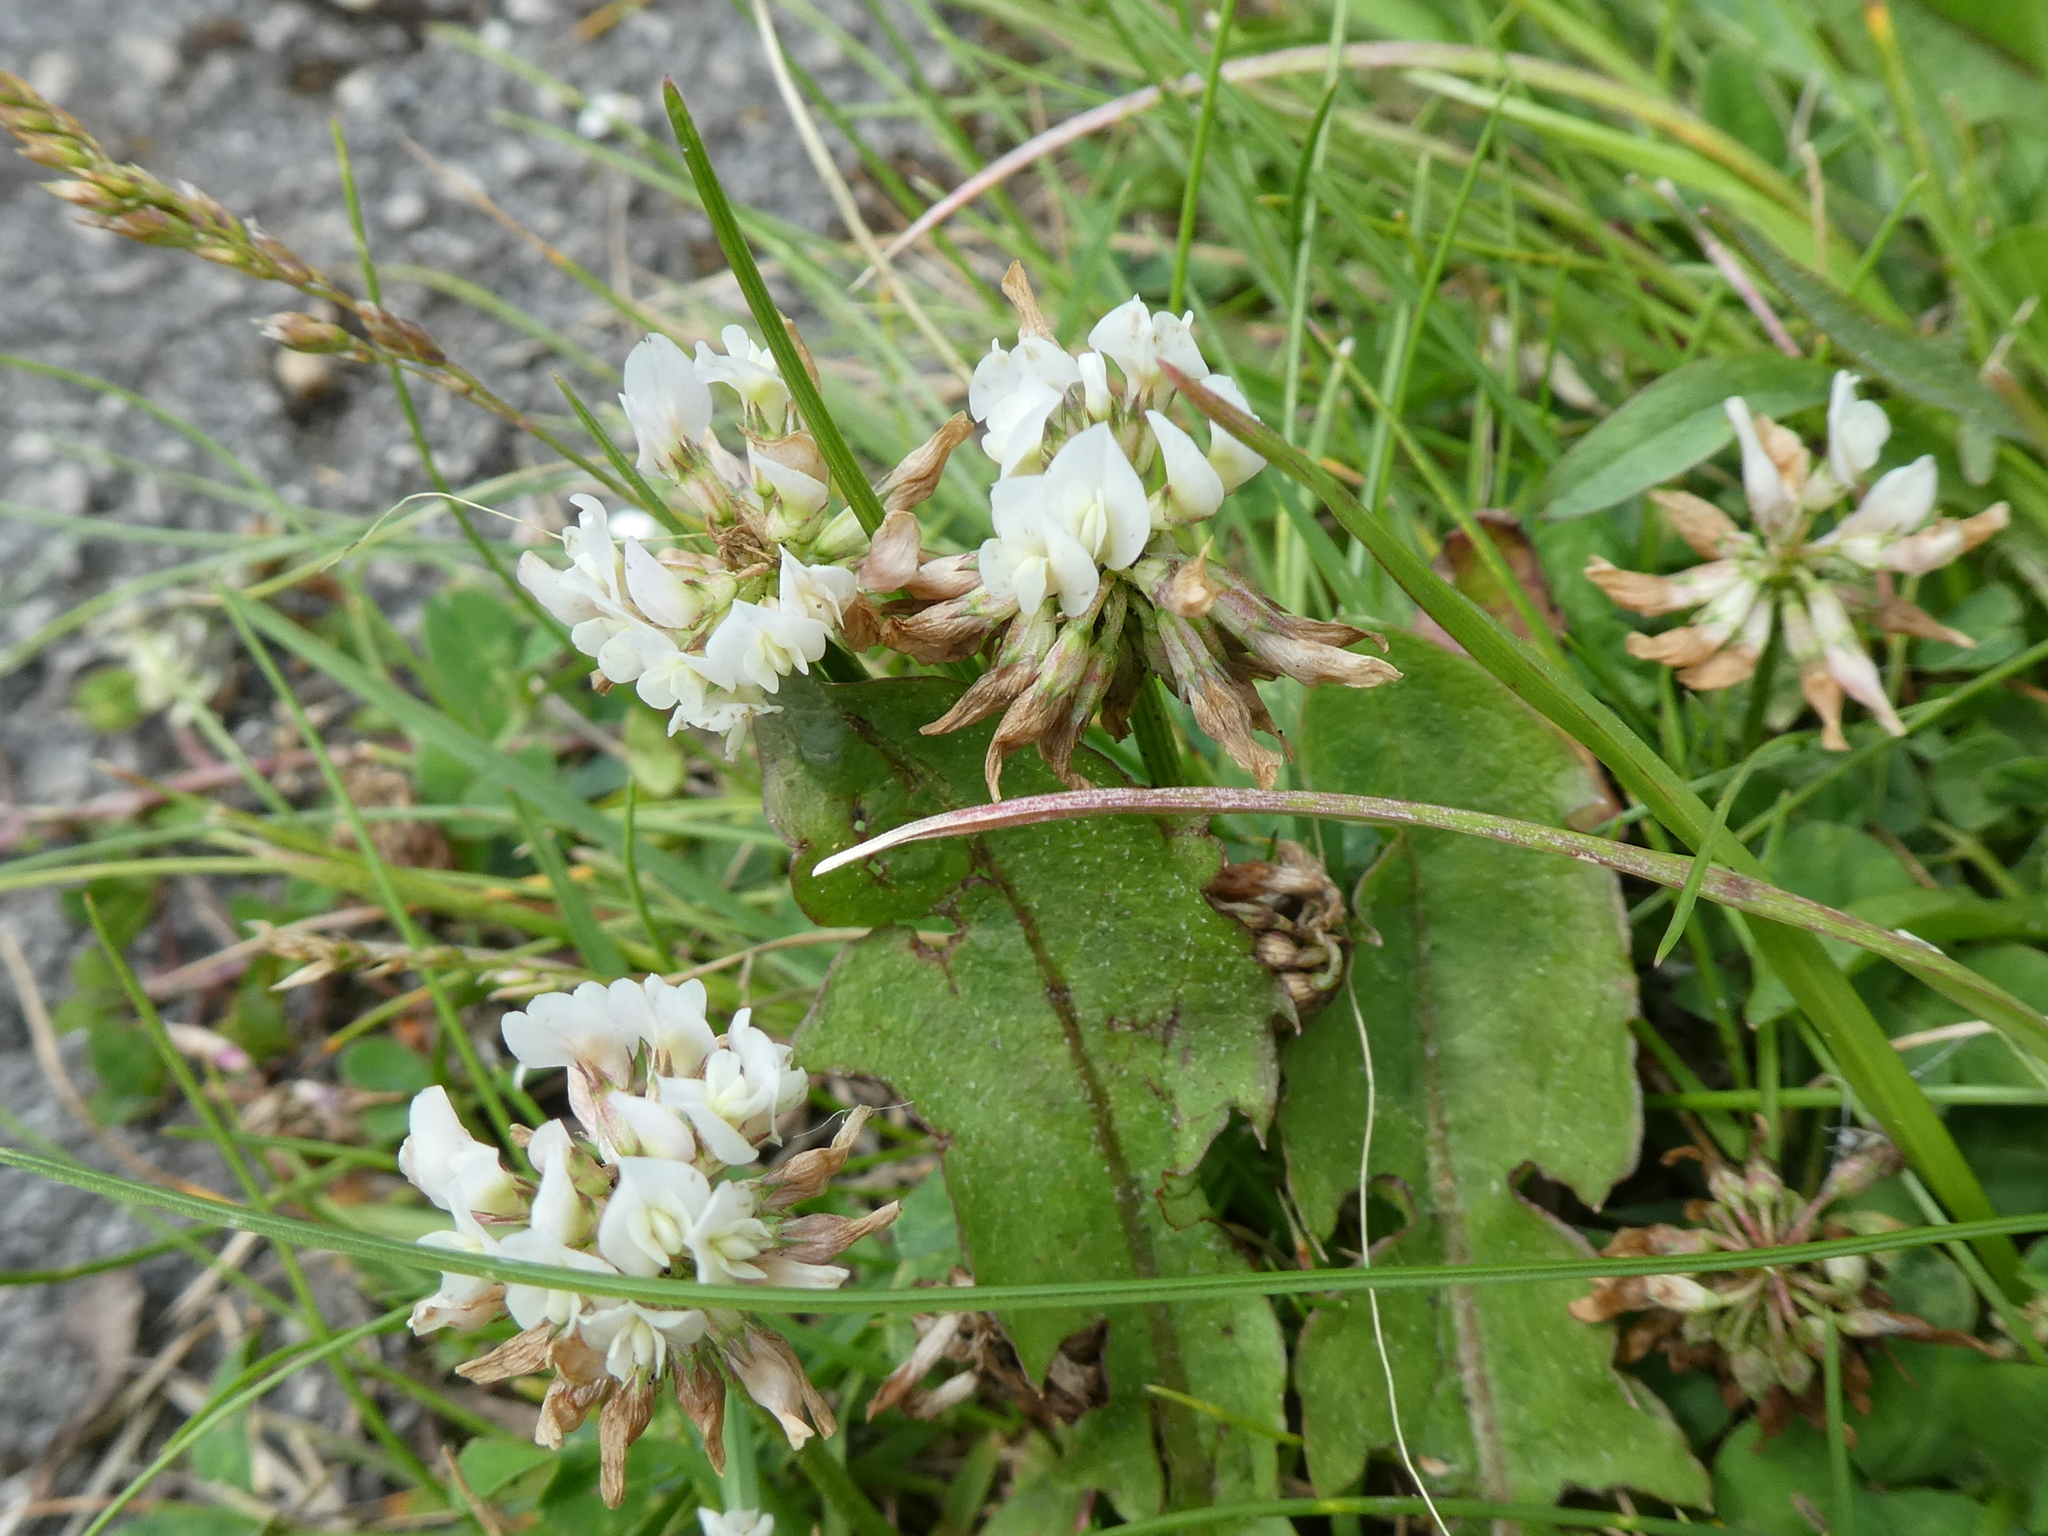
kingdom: Plantae
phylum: Tracheophyta
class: Magnoliopsida
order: Fabales
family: Fabaceae
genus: Trifolium
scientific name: Trifolium repens
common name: White clover
